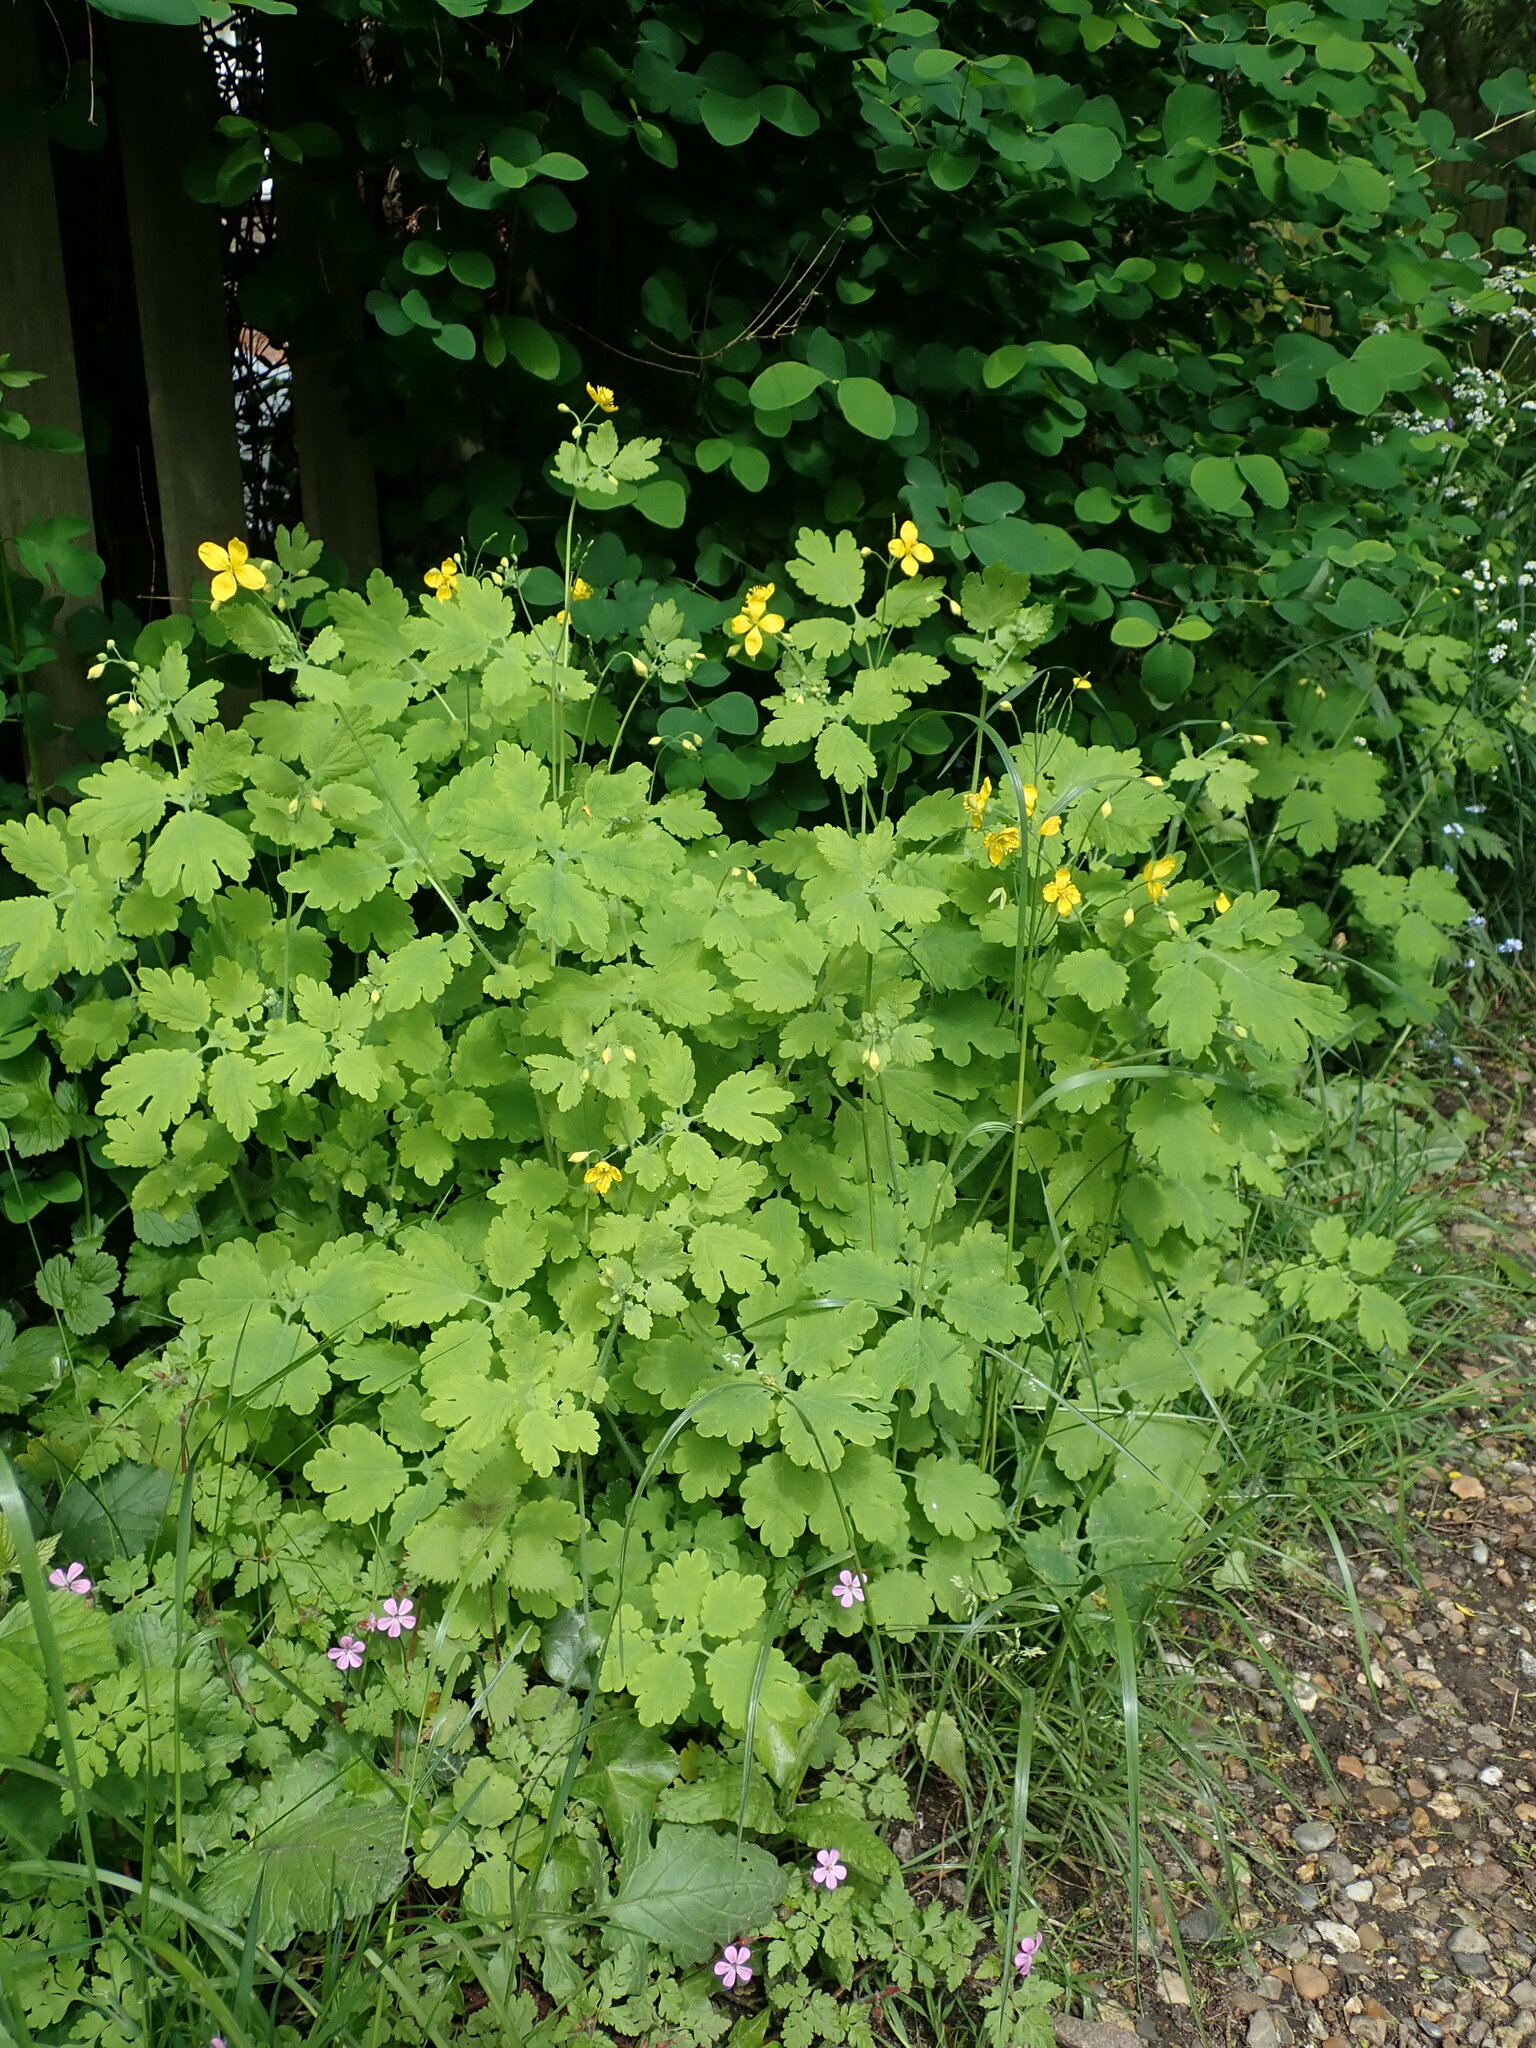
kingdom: Plantae
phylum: Tracheophyta
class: Magnoliopsida
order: Ranunculales
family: Papaveraceae
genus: Chelidonium
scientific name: Chelidonium majus
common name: Greater celandine
